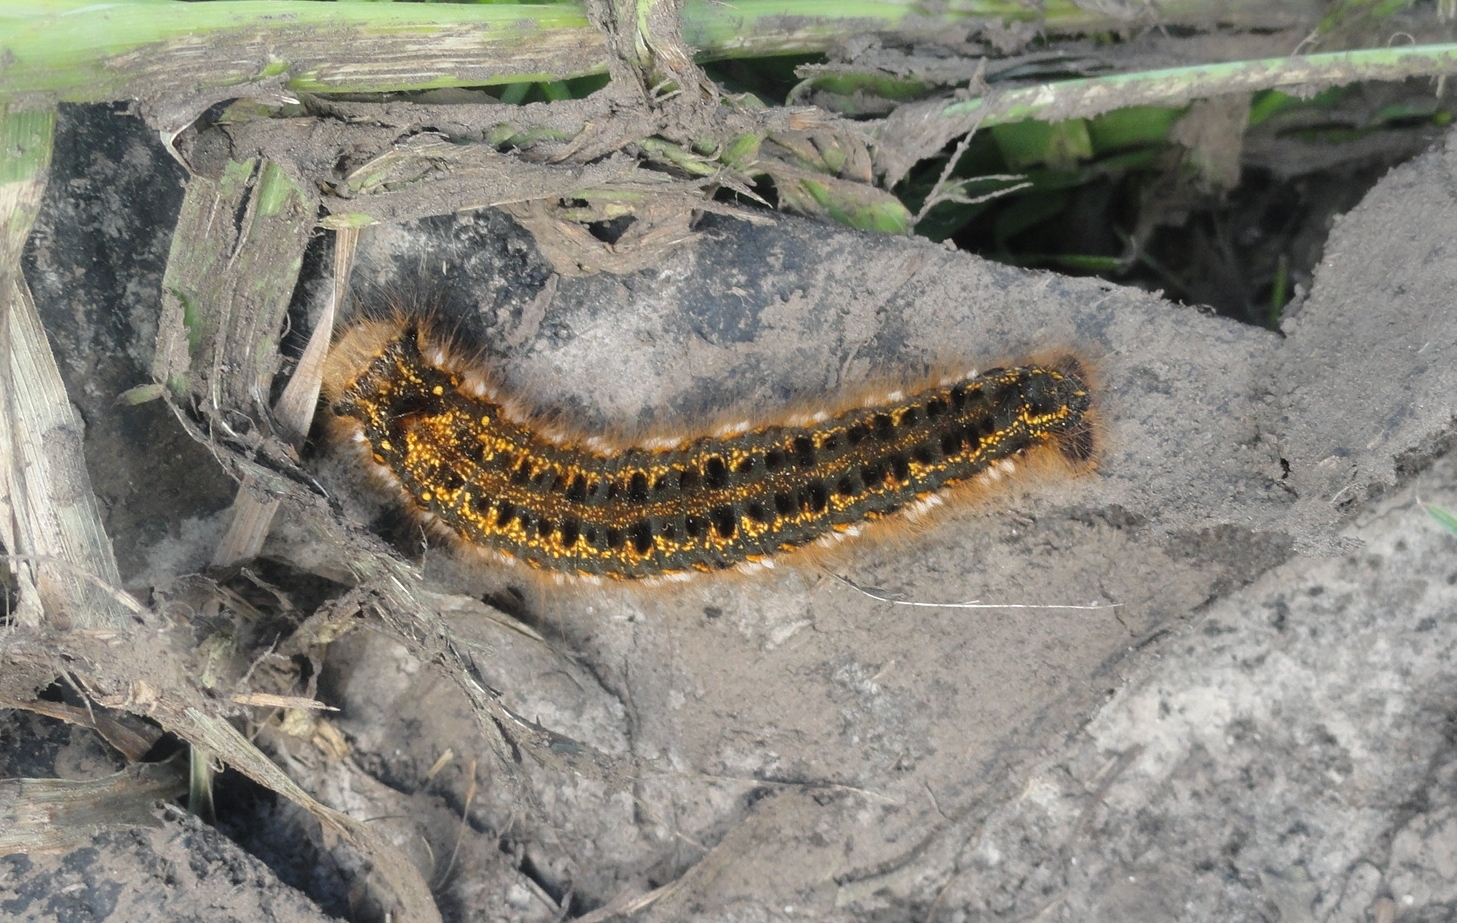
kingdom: Animalia
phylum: Arthropoda
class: Insecta
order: Lepidoptera
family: Lasiocampidae
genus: Euthrix
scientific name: Euthrix potatoria
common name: Drinker
